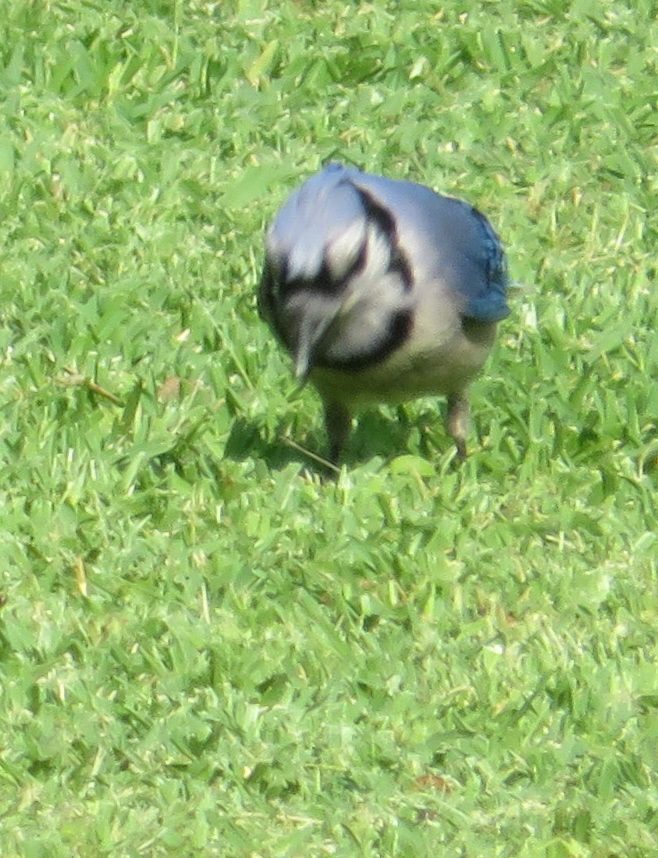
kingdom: Animalia
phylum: Chordata
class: Aves
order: Passeriformes
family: Corvidae
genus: Cyanocitta
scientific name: Cyanocitta cristata
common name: Blue jay
